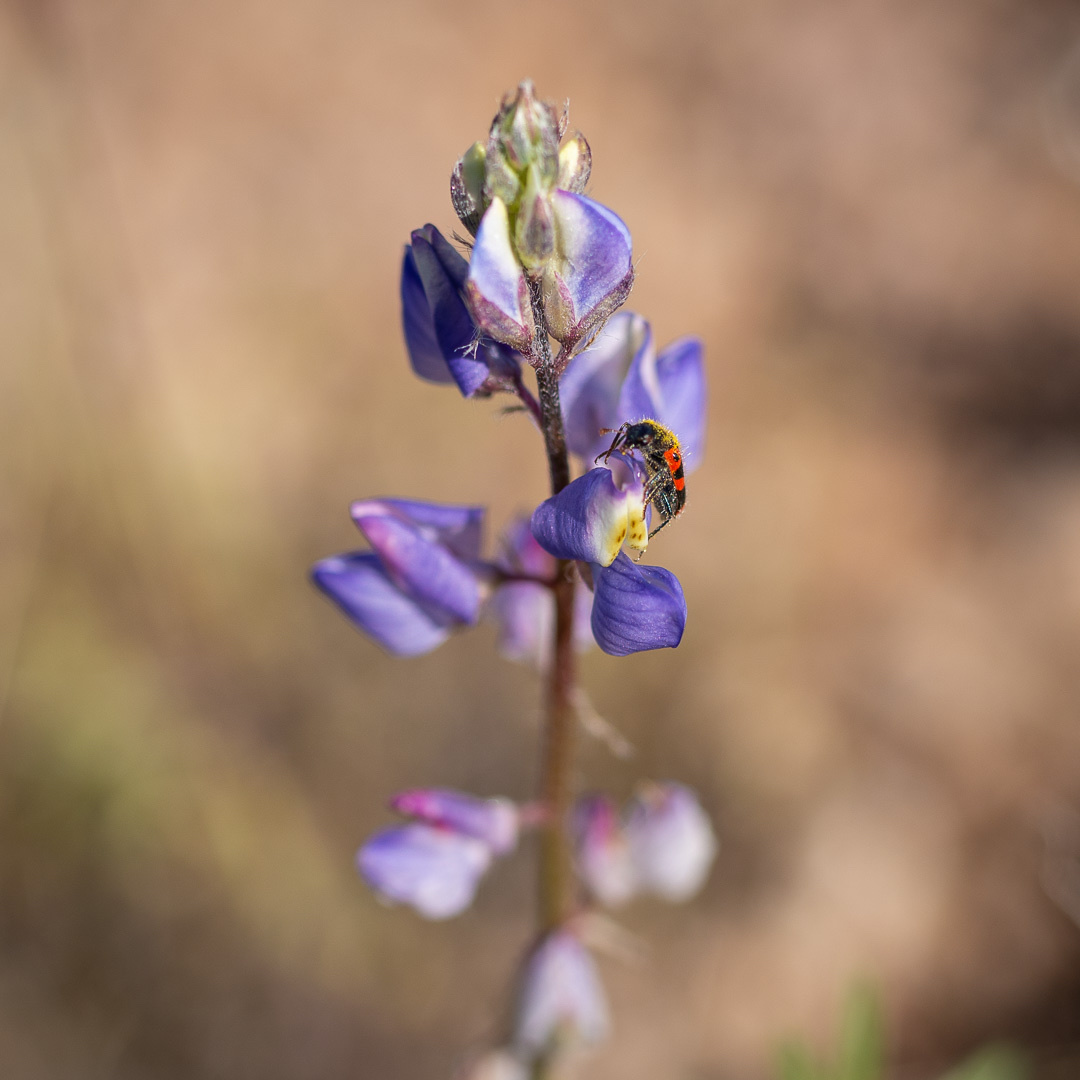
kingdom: Plantae
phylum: Tracheophyta
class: Magnoliopsida
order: Fabales
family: Fabaceae
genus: Lupinus
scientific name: Lupinus sparsiflorus
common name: Coulter's lupine
